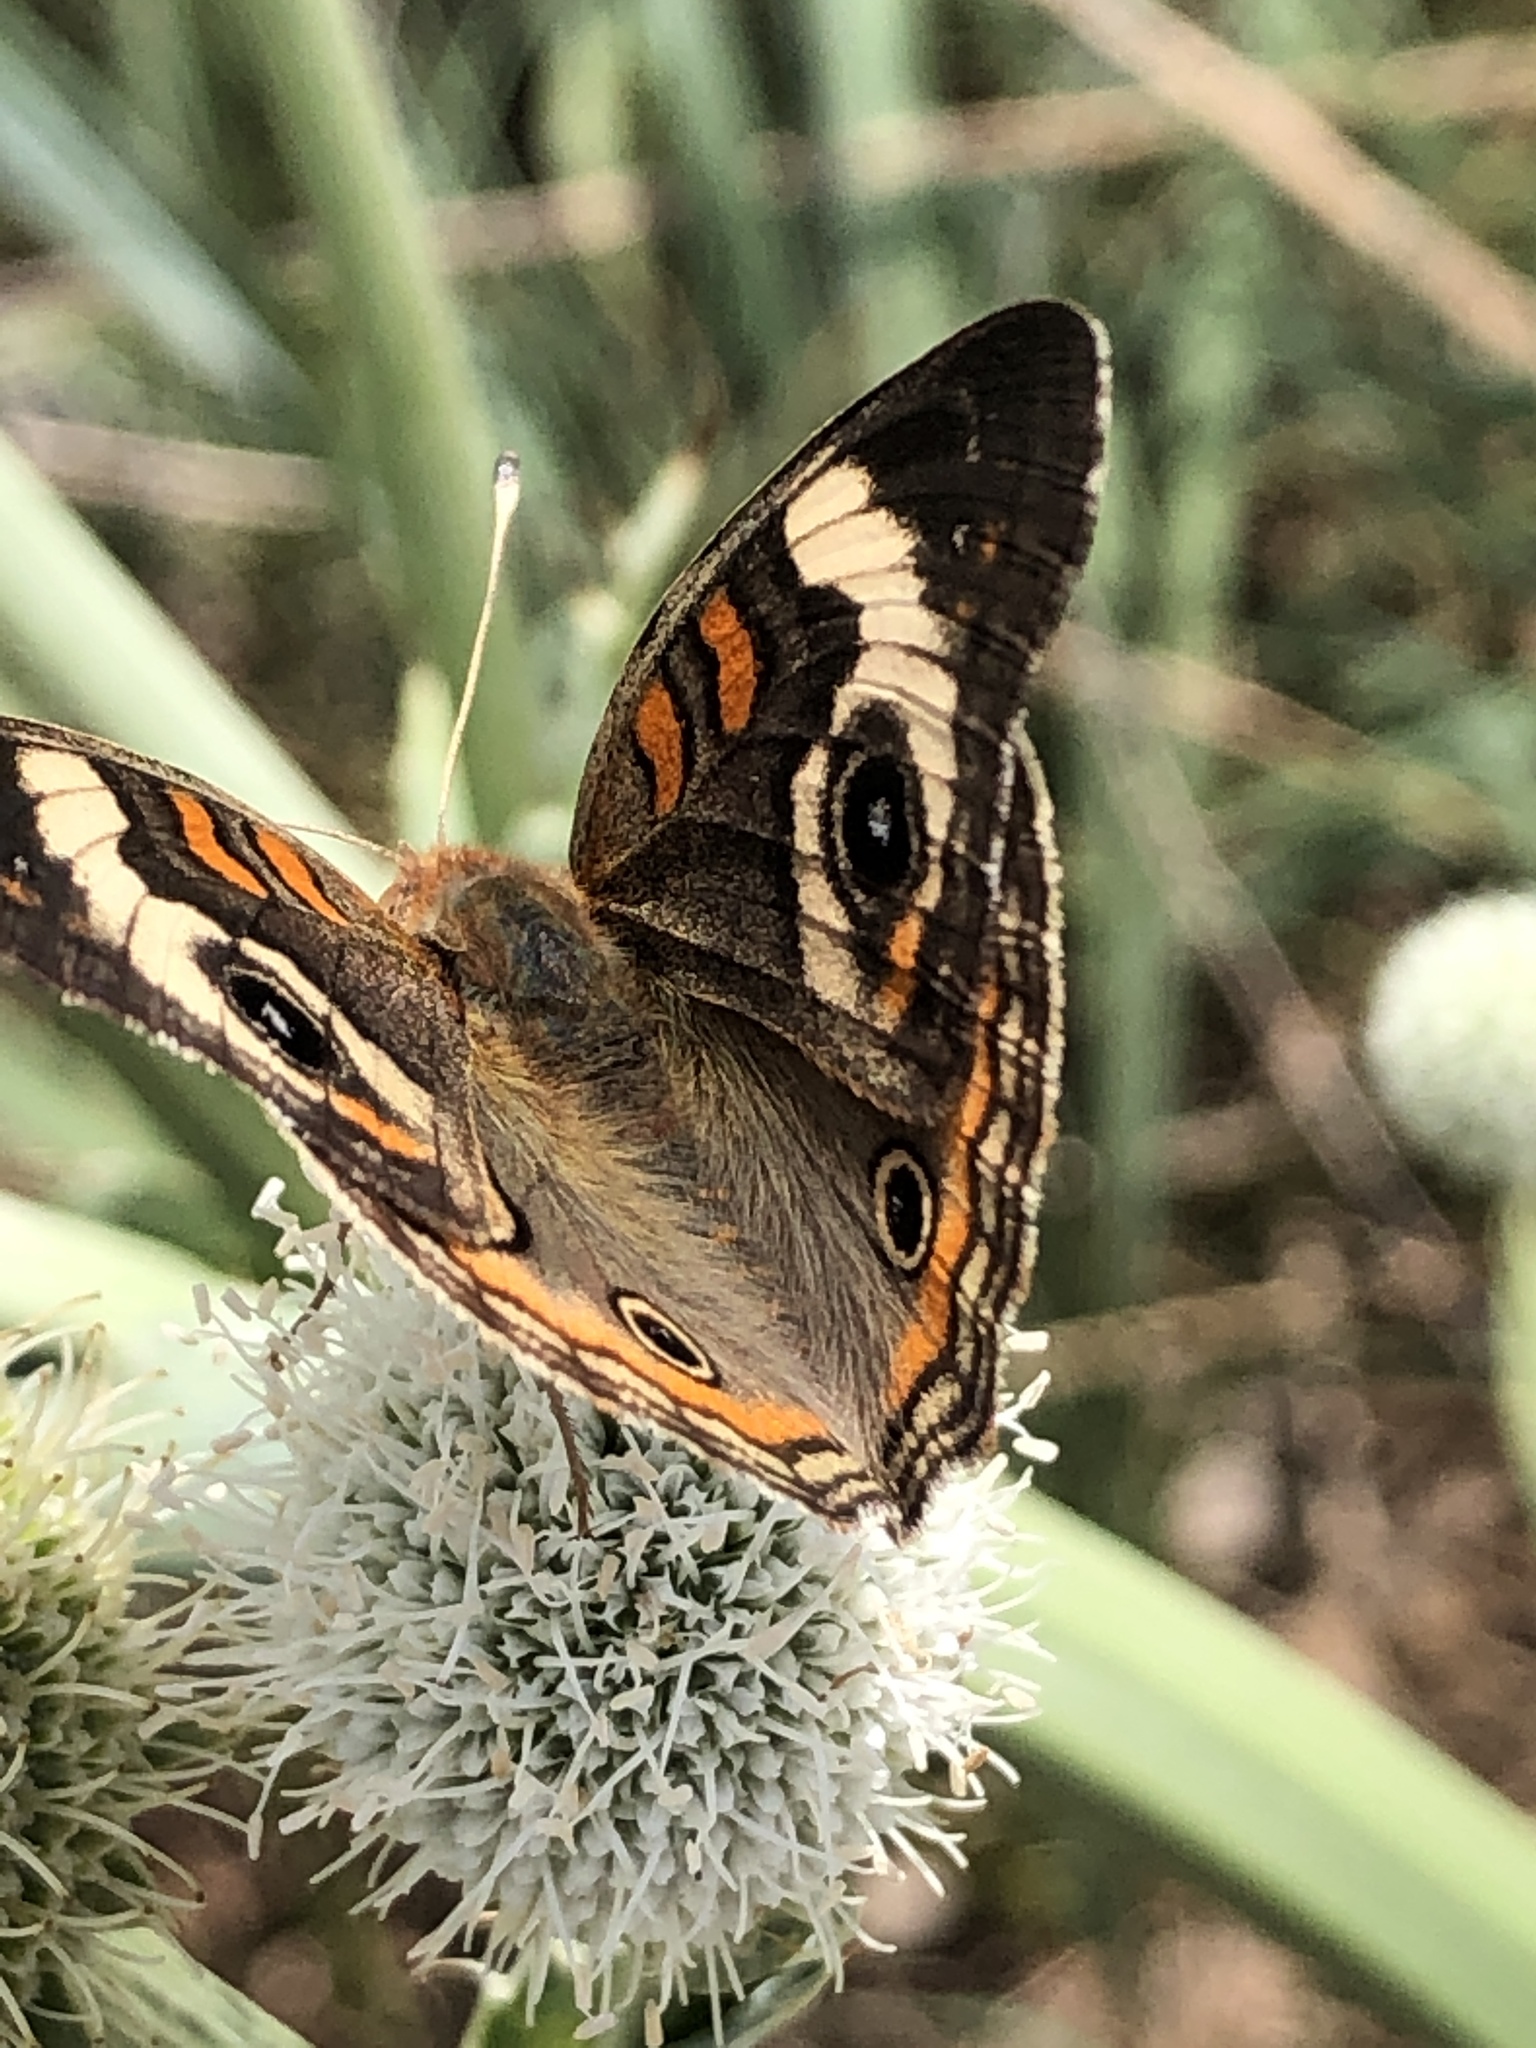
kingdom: Animalia
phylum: Arthropoda
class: Insecta
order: Lepidoptera
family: Nymphalidae
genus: Junonia
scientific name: Junonia coenia
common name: Common buckeye
